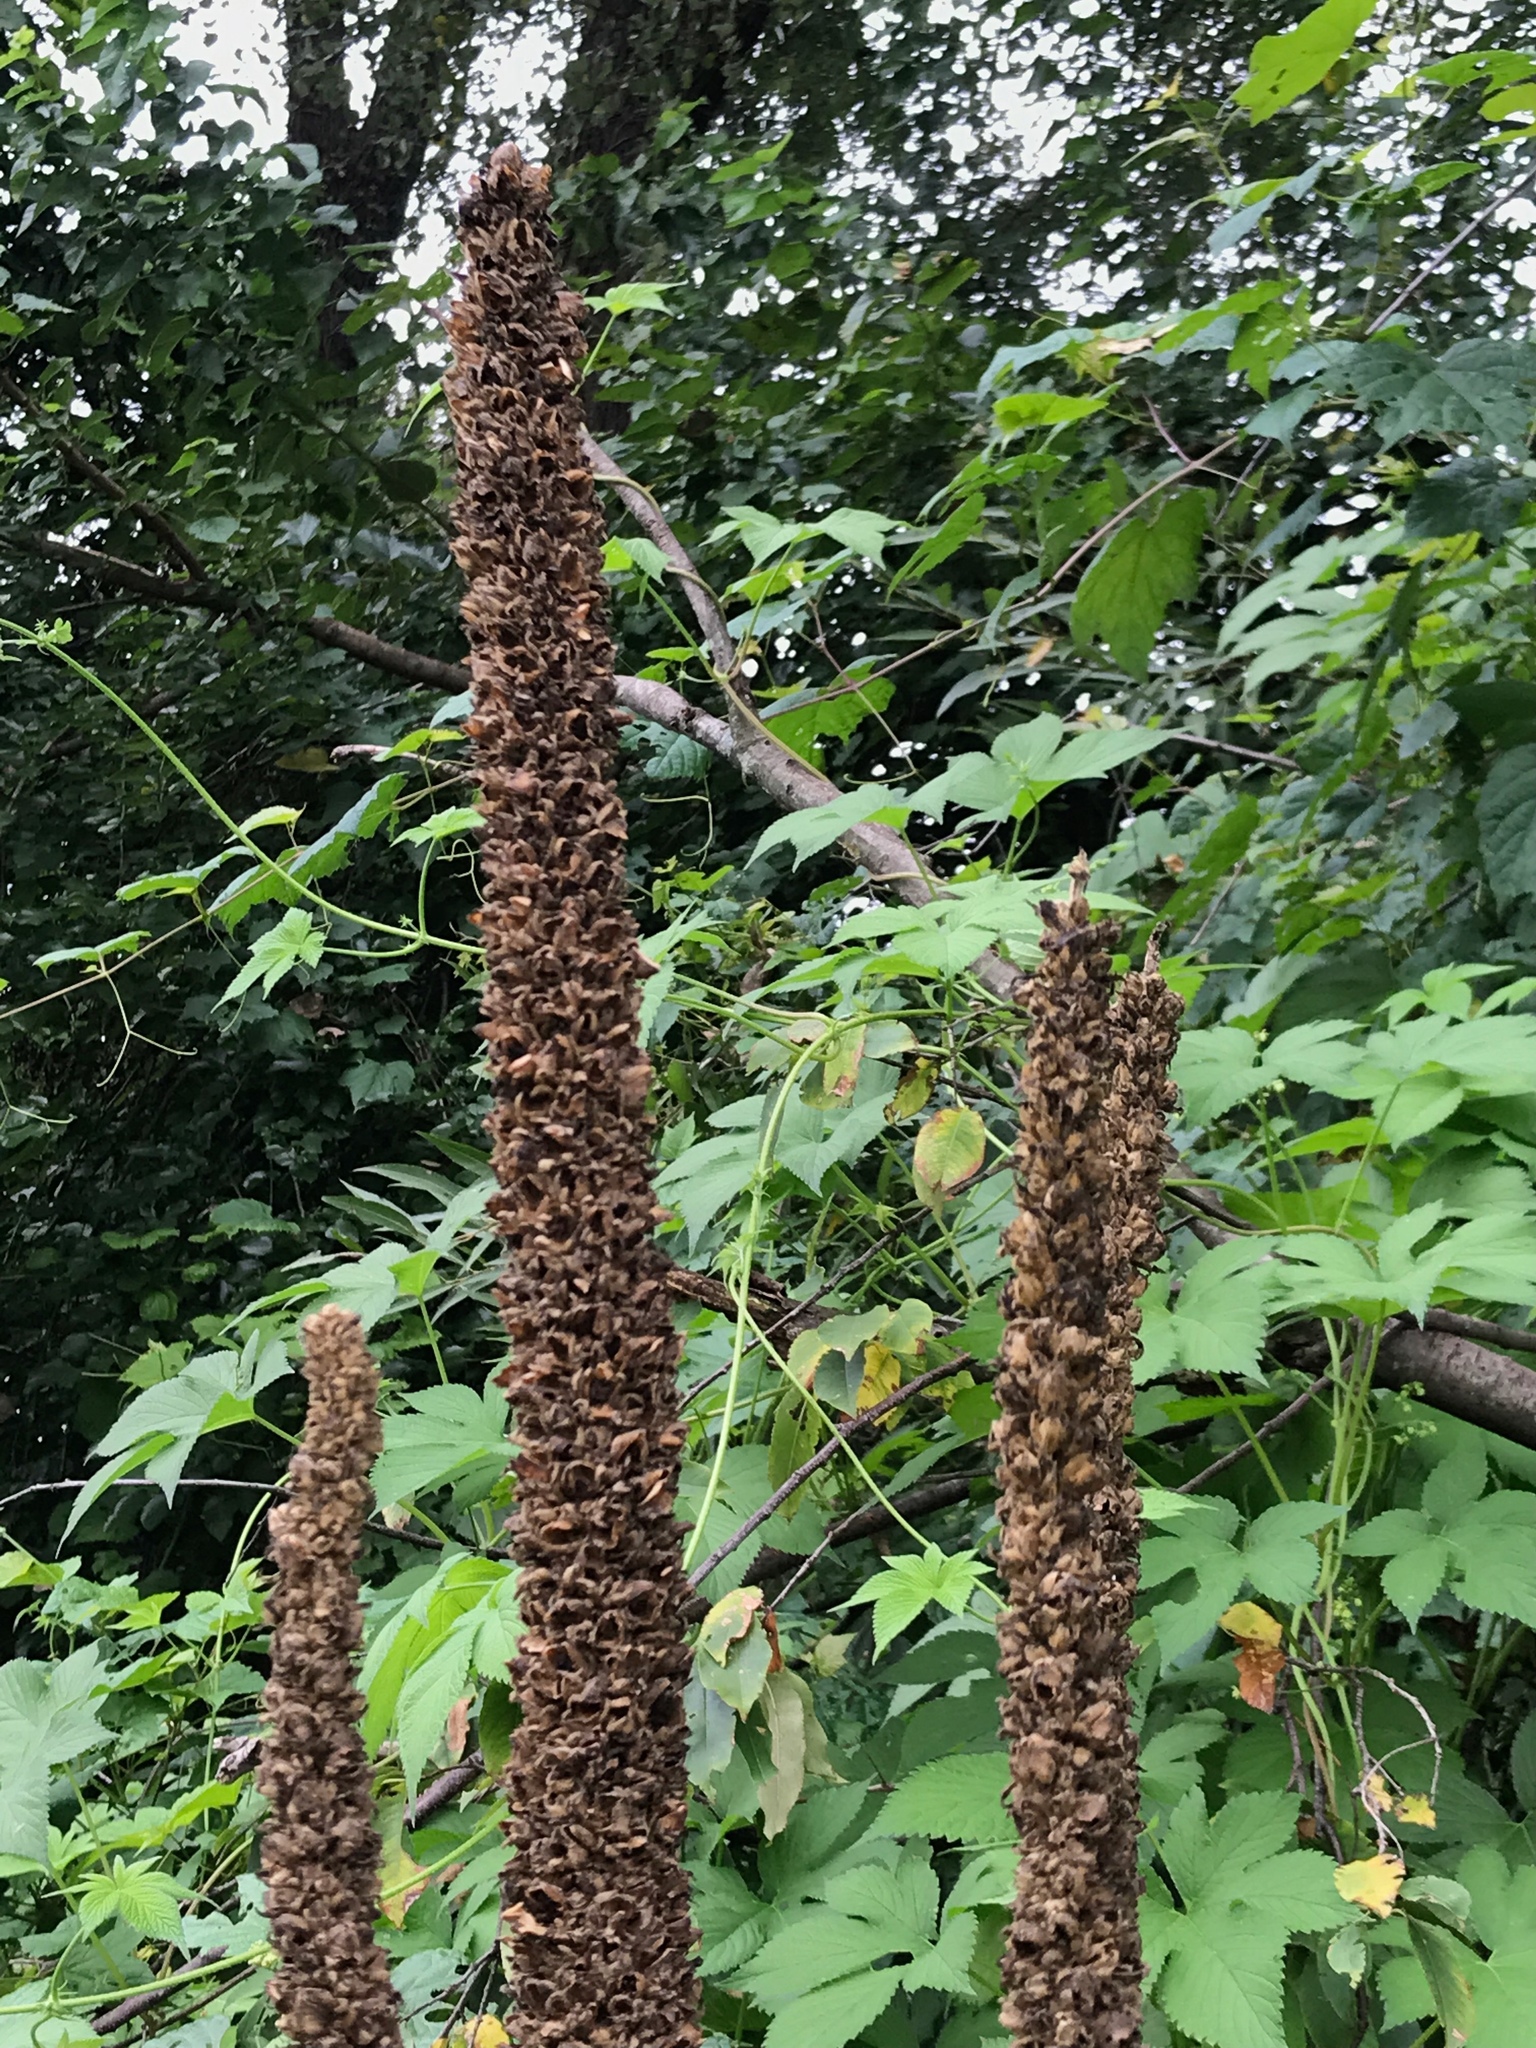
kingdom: Plantae
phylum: Tracheophyta
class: Magnoliopsida
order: Lamiales
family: Scrophulariaceae
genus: Verbascum
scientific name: Verbascum thapsus
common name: Common mullein
